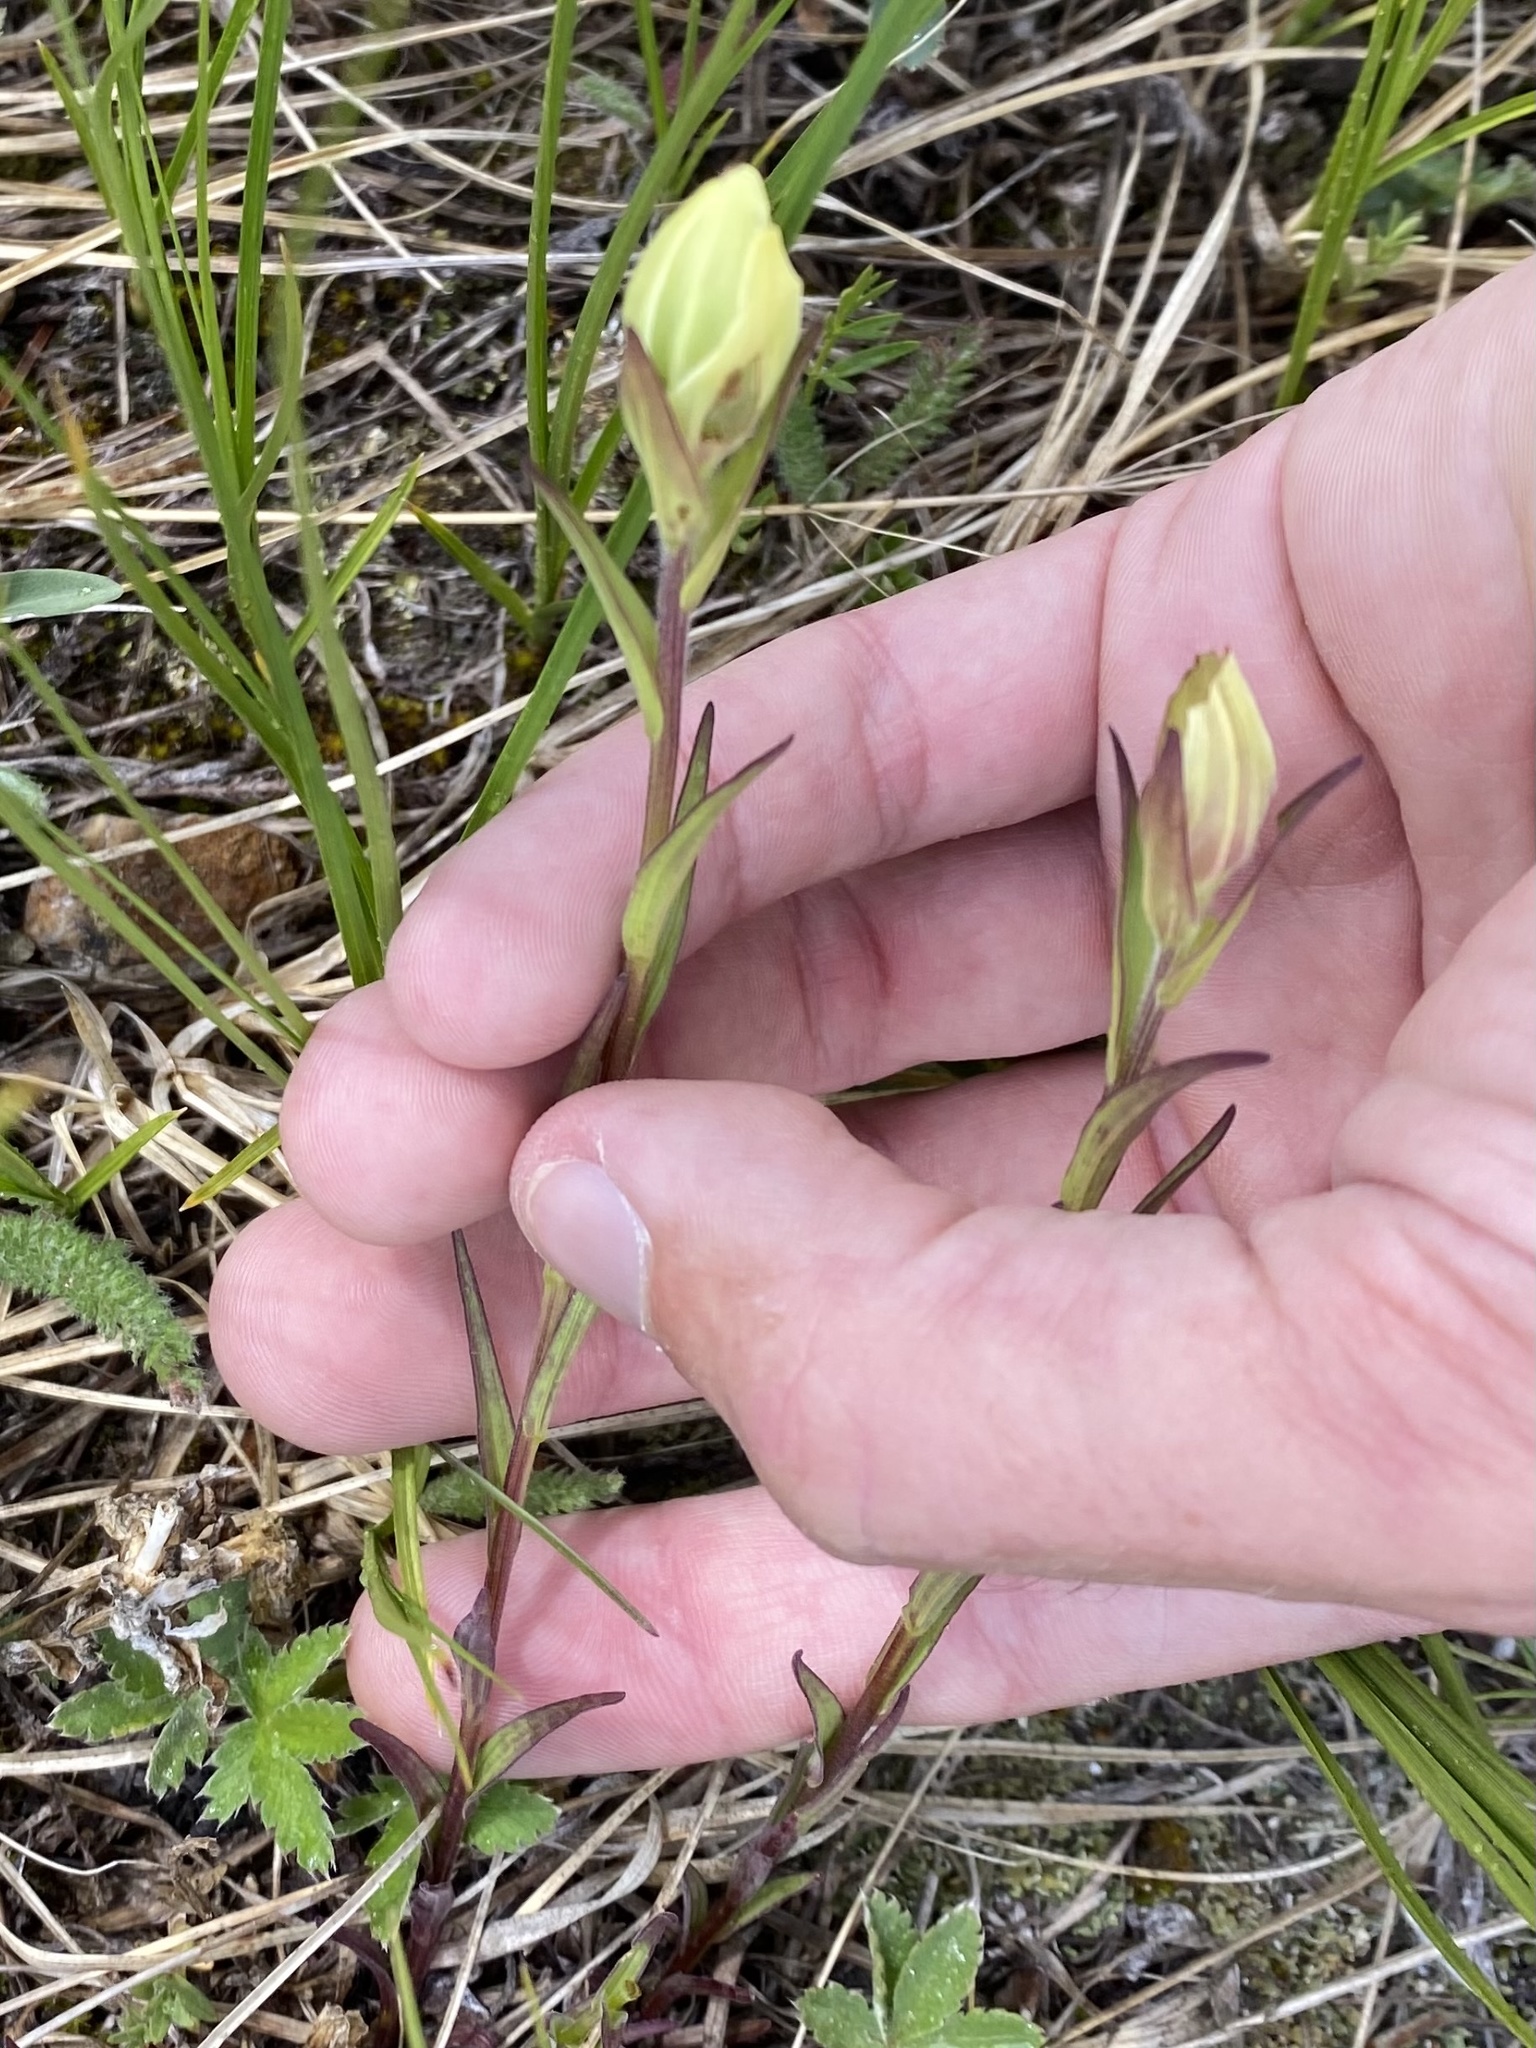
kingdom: Plantae
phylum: Tracheophyta
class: Magnoliopsida
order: Lamiales
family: Orobanchaceae
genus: Castilleja
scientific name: Castilleja occidentalis
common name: Western paintbrush
